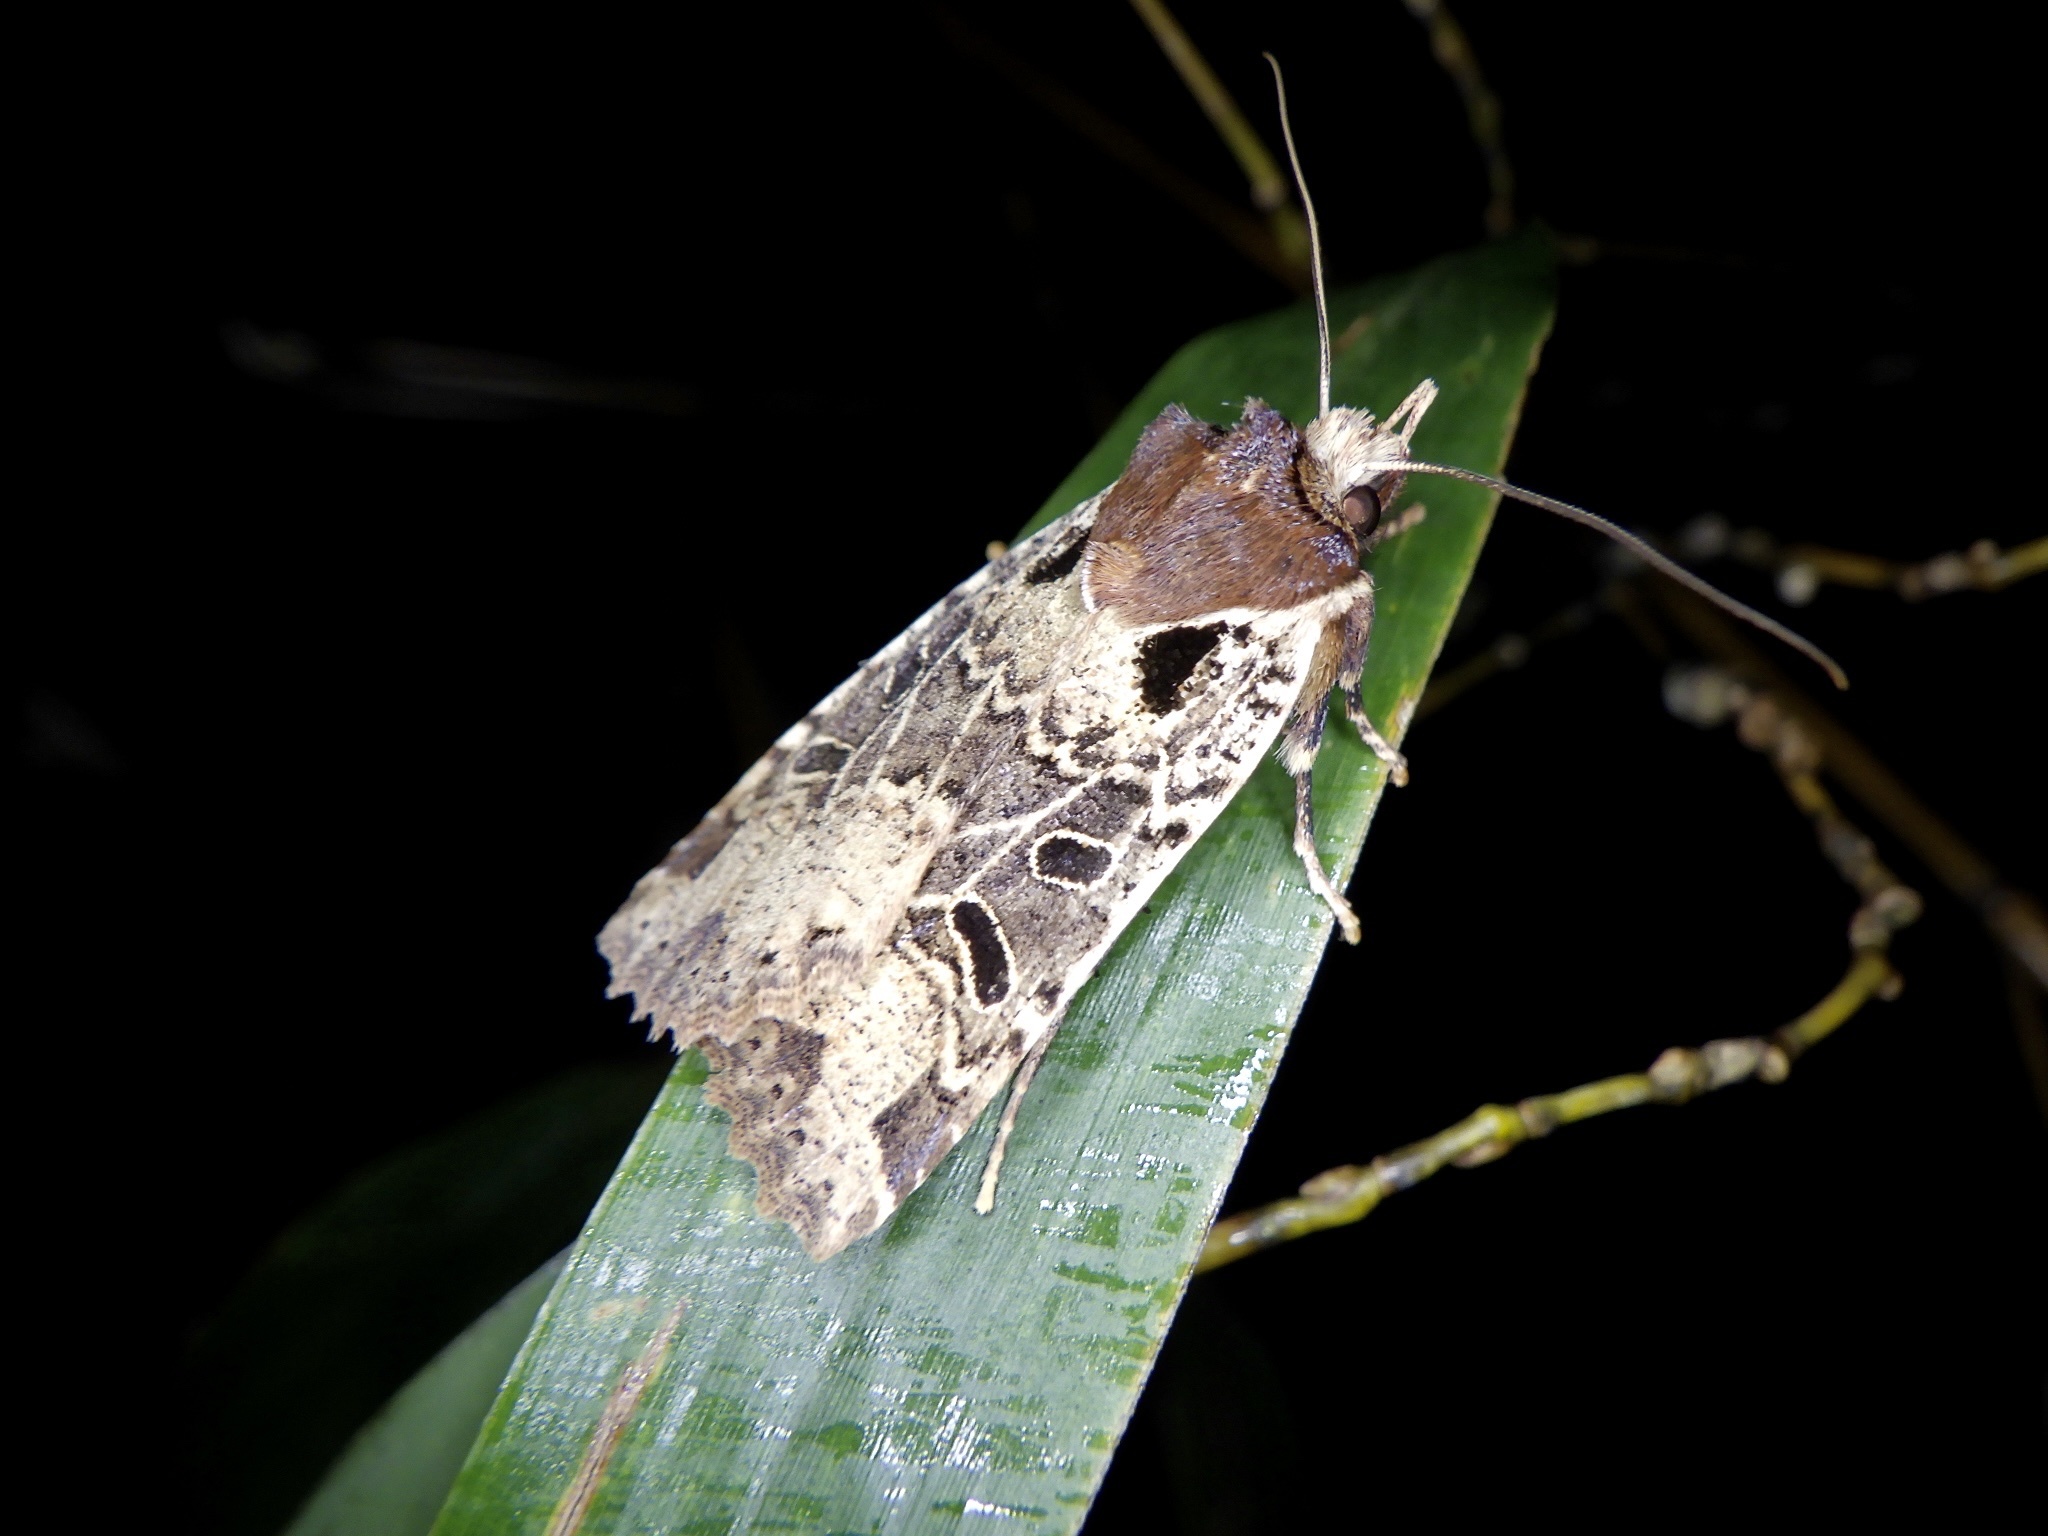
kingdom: Animalia
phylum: Arthropoda
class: Insecta
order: Lepidoptera
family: Noctuidae
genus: Rhynchaglaea
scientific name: Rhynchaglaea scitula
